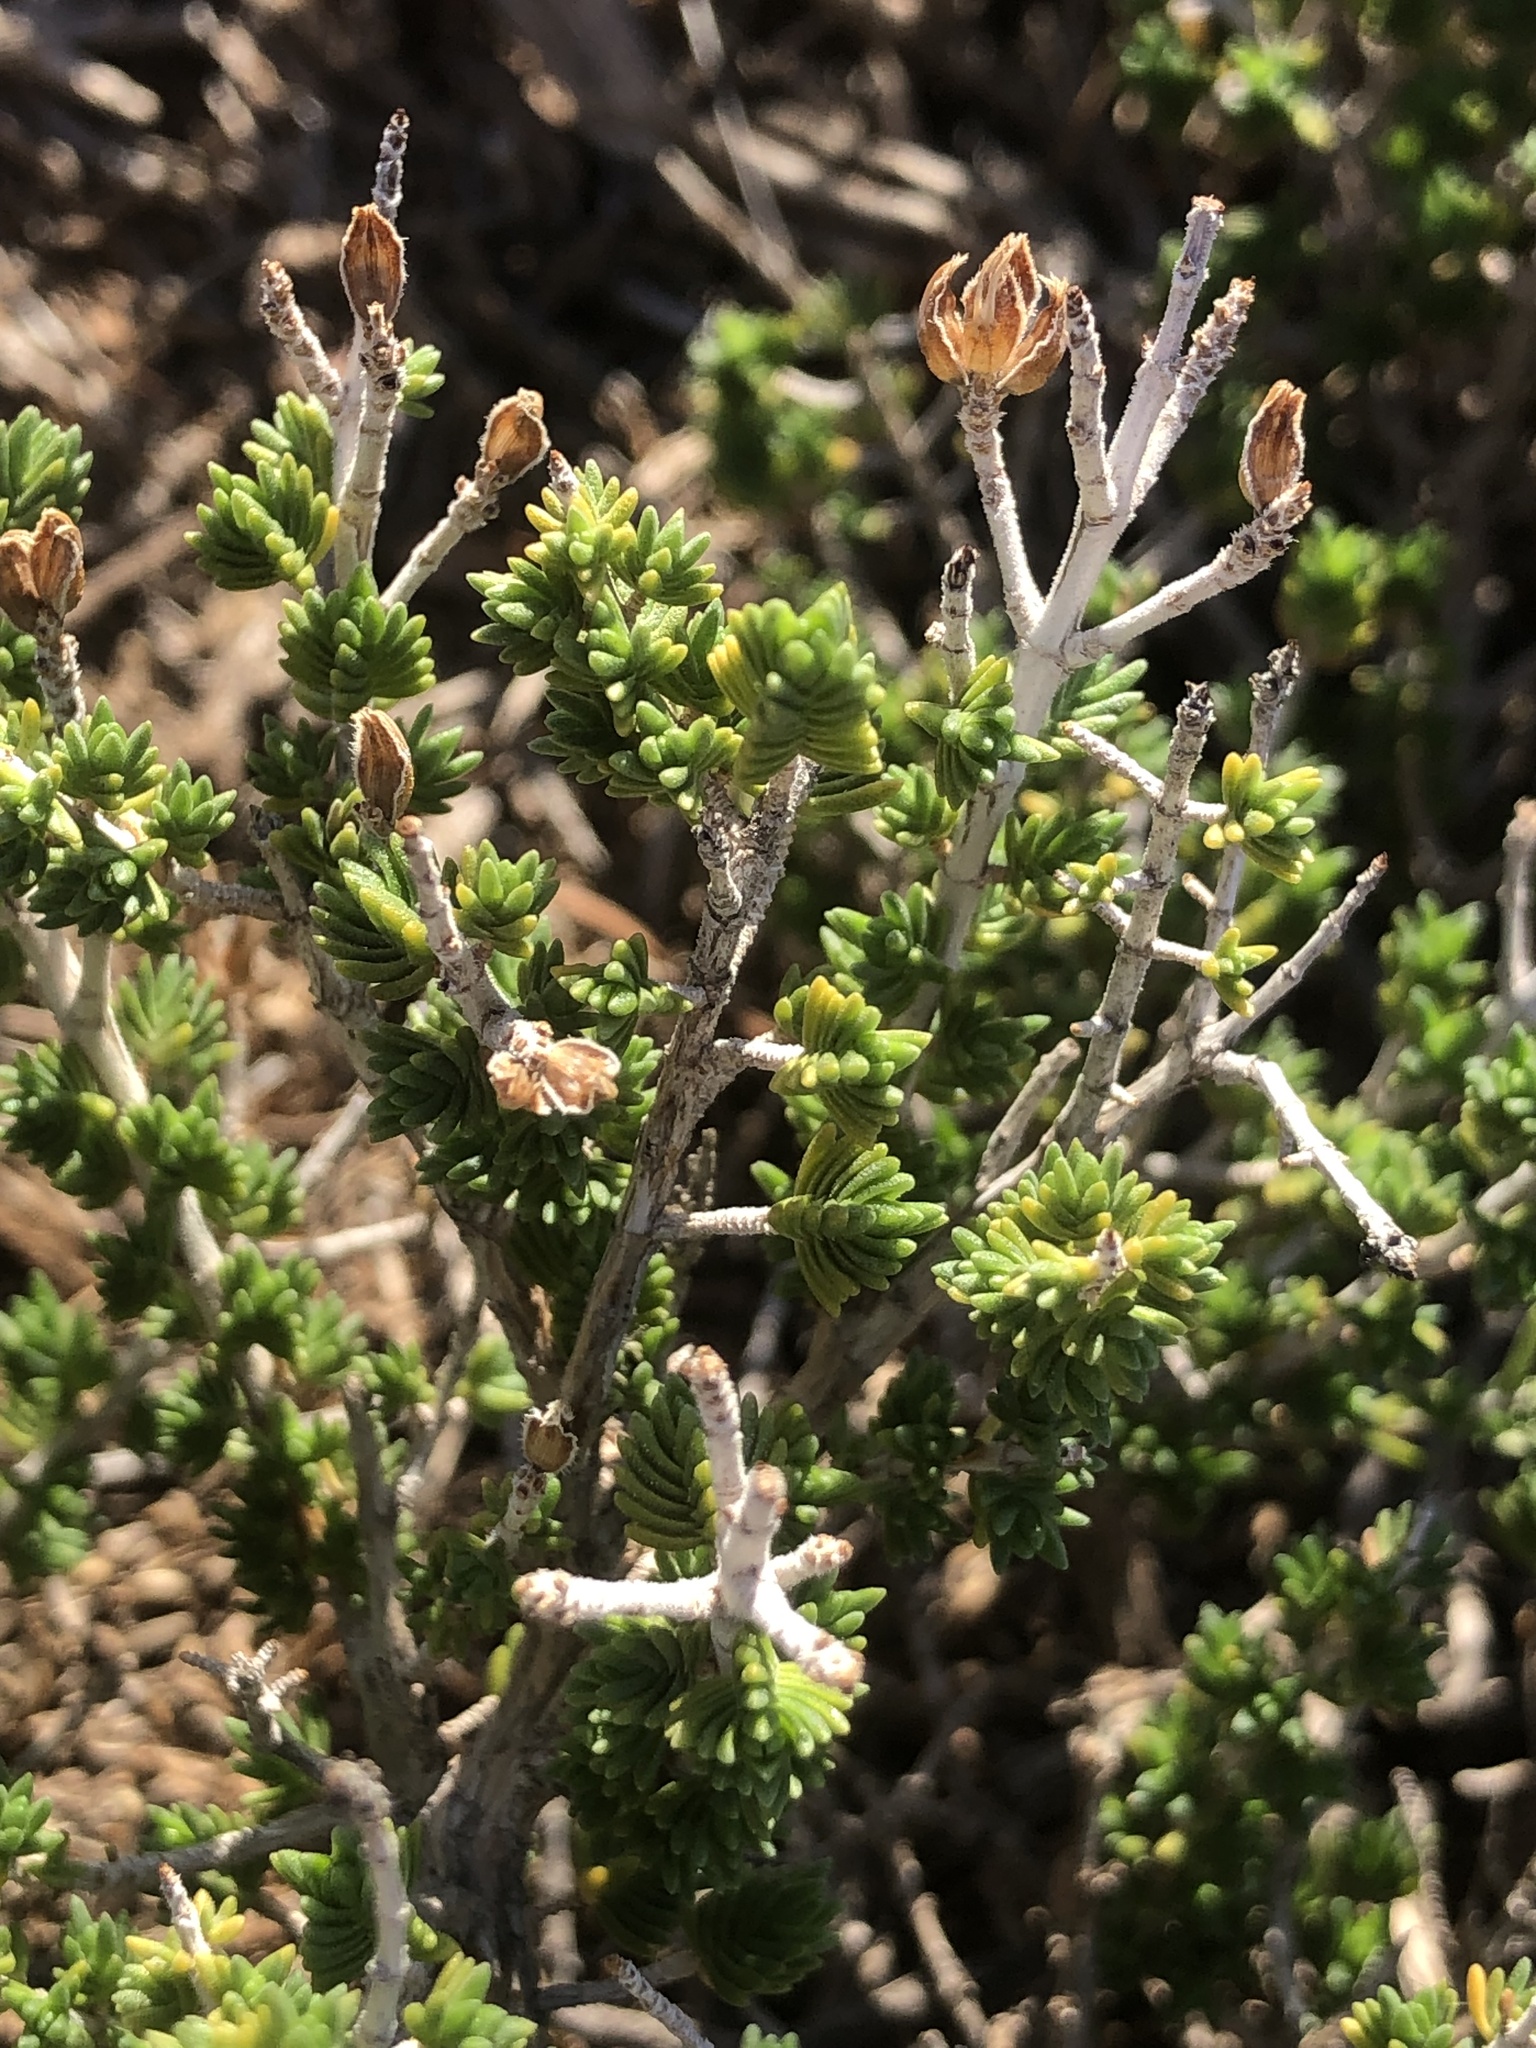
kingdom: Plantae
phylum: Tracheophyta
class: Magnoliopsida
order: Lamiales
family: Lamiaceae
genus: Thymbra
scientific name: Thymbra capitata
